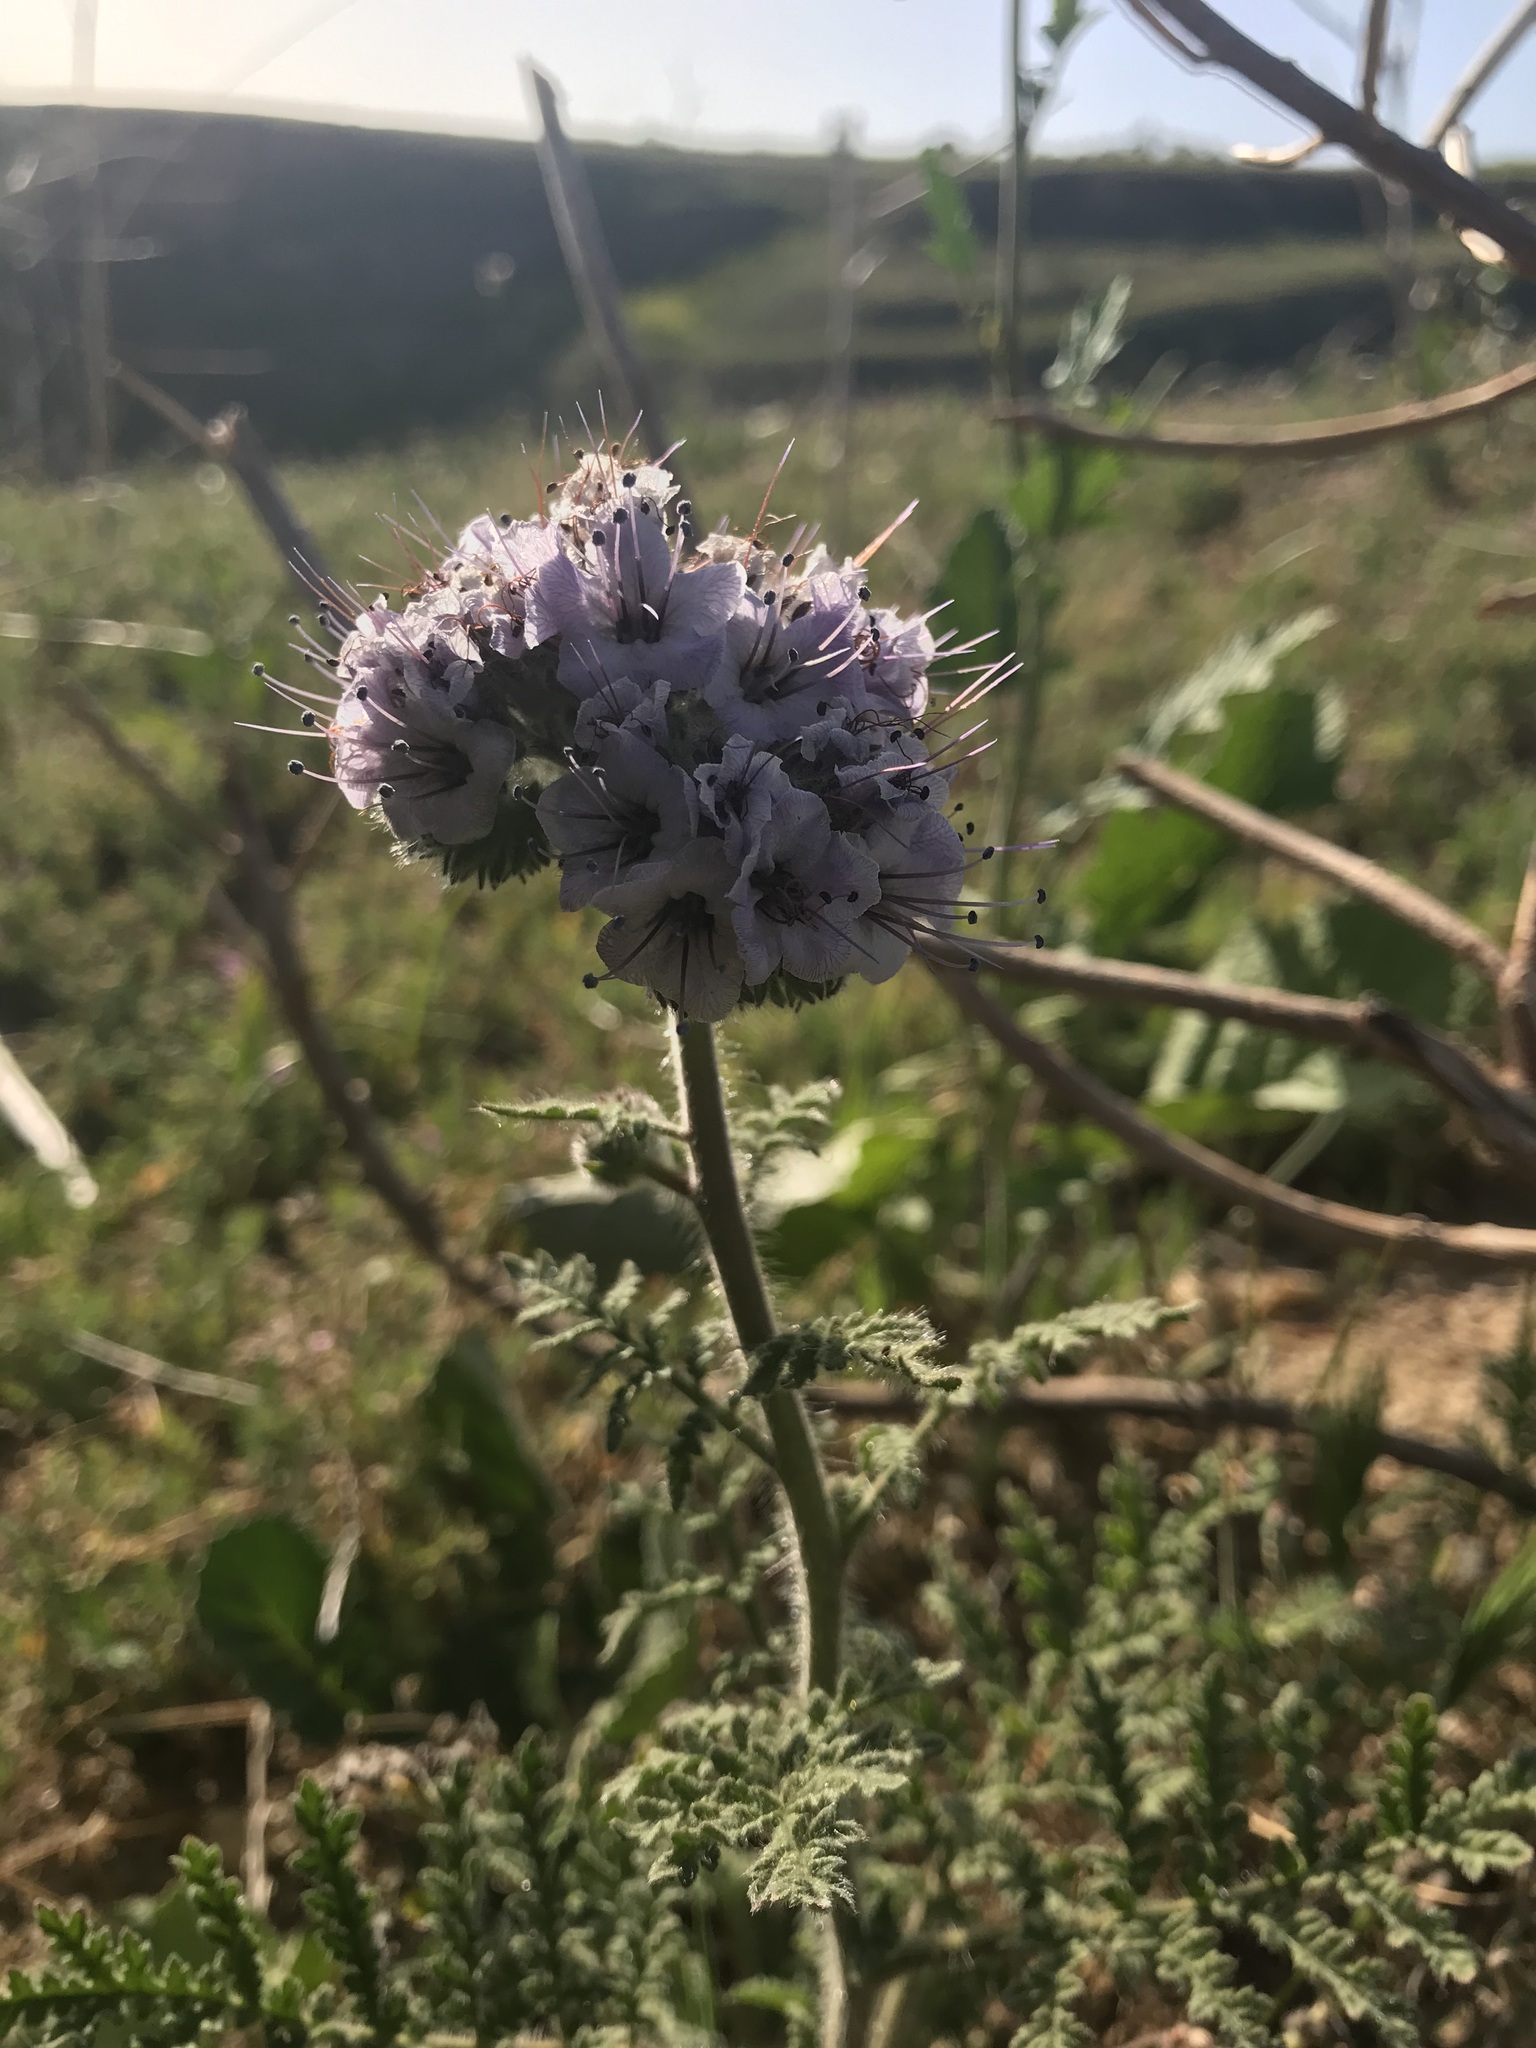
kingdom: Plantae
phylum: Tracheophyta
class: Magnoliopsida
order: Boraginales
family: Hydrophyllaceae
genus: Phacelia
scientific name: Phacelia hubbyi
